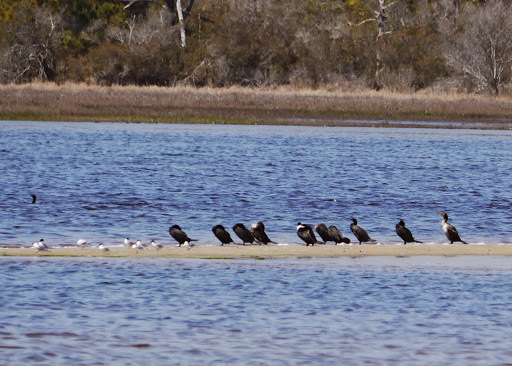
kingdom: Animalia
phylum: Chordata
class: Aves
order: Suliformes
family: Phalacrocoracidae
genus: Phalacrocorax
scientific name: Phalacrocorax auritus
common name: Double-crested cormorant
